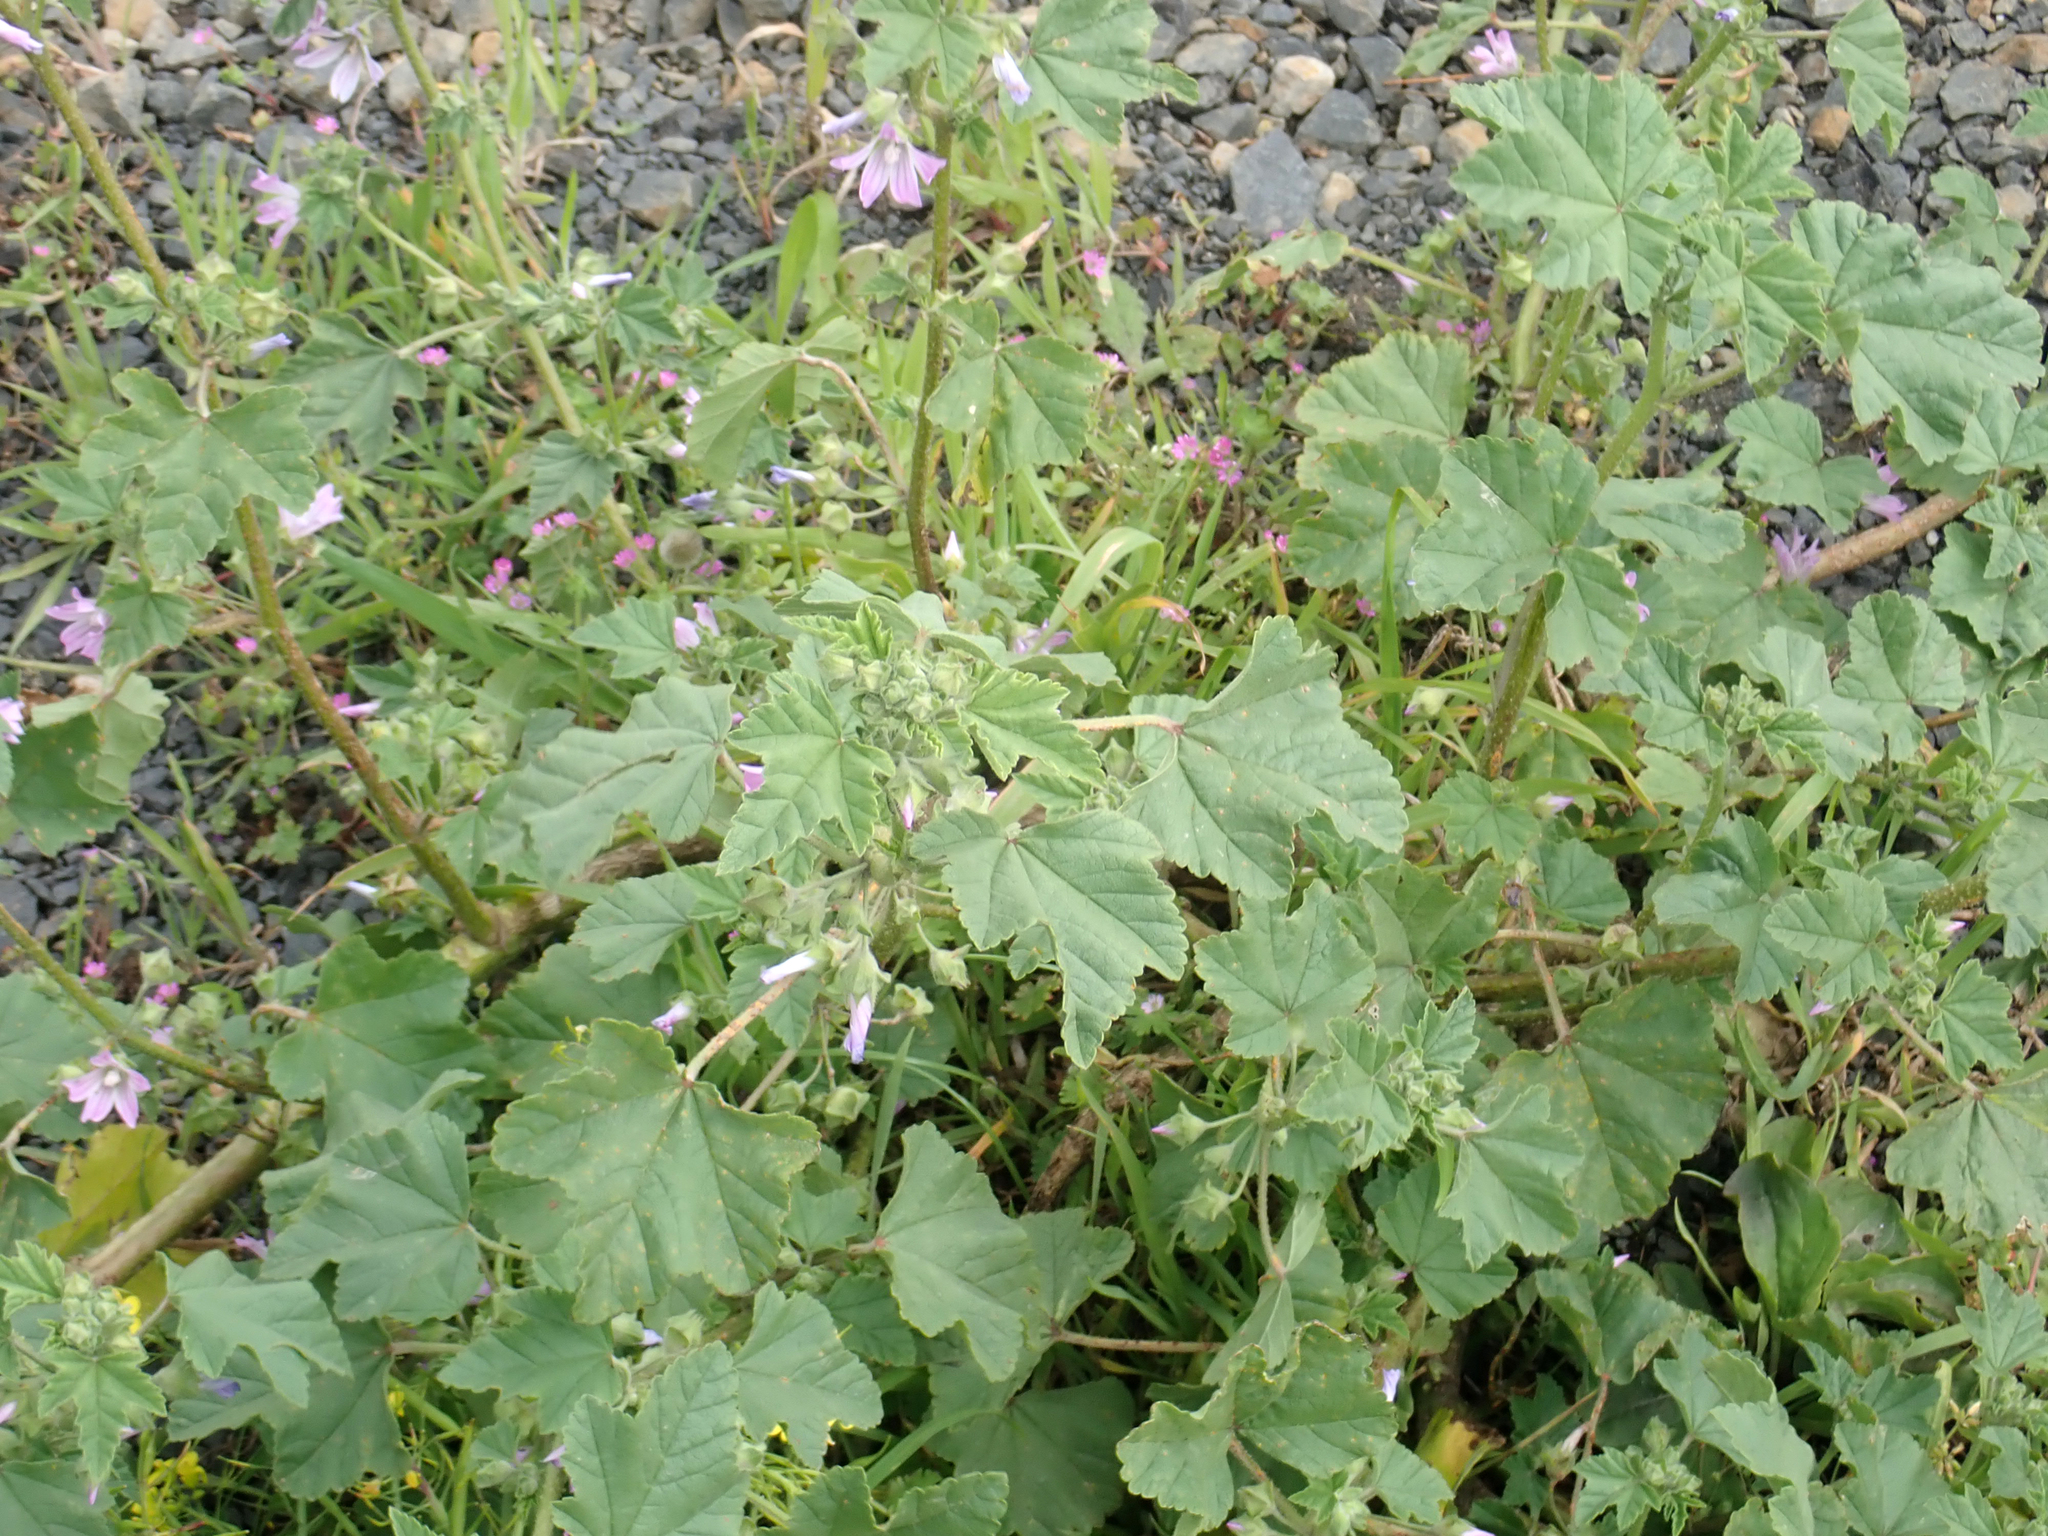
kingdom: Plantae
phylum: Tracheophyta
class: Magnoliopsida
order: Malvales
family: Malvaceae
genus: Malva
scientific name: Malva multiflora
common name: Cheeseweed
